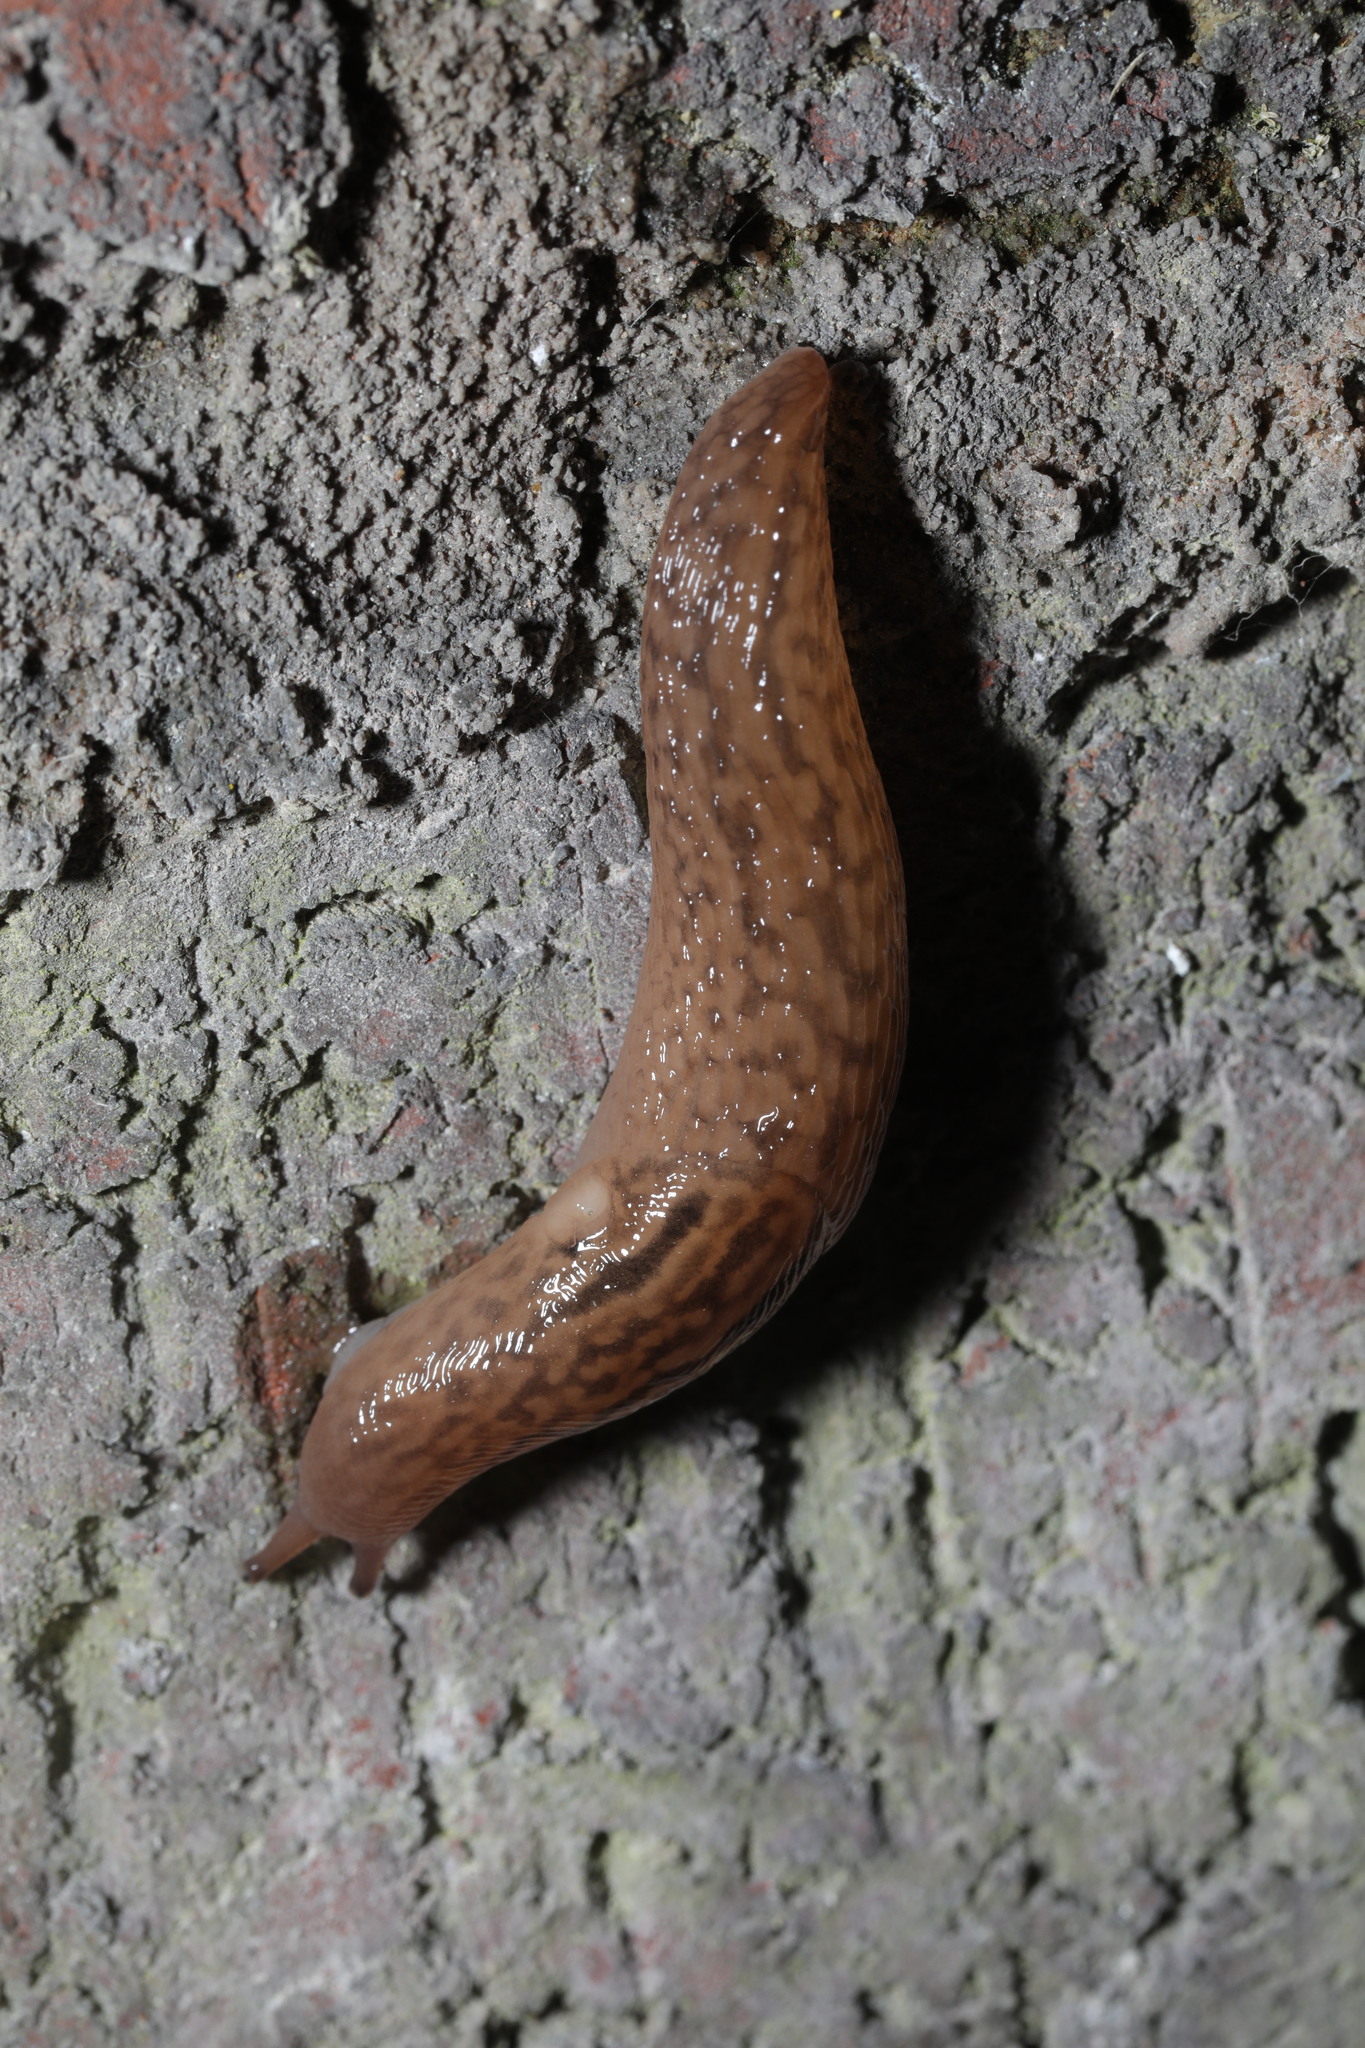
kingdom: Animalia
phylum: Mollusca
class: Gastropoda
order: Stylommatophora
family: Limacidae
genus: Ambigolimax
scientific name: Ambigolimax valentianus
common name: Greenhouse slug
